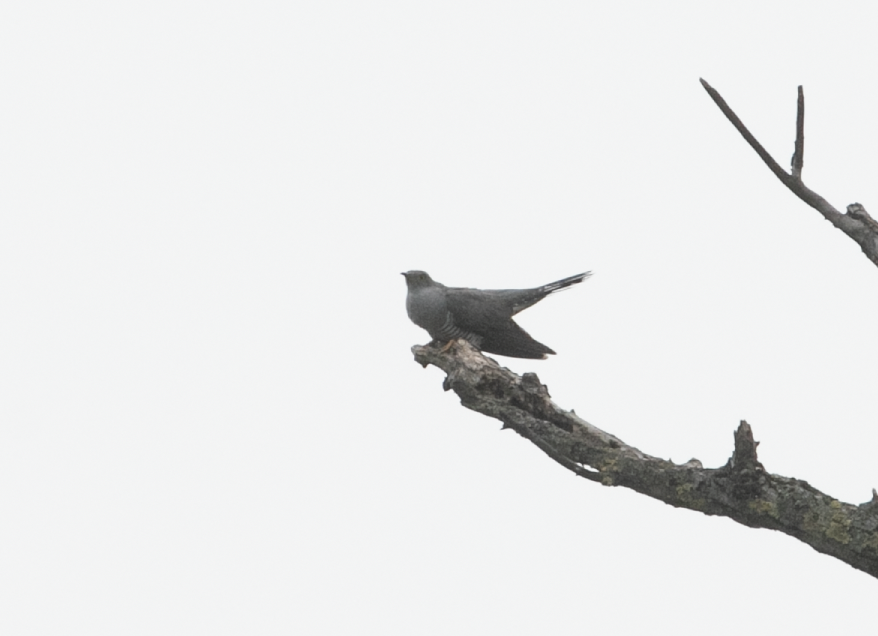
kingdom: Animalia
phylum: Chordata
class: Aves
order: Cuculiformes
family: Cuculidae
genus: Cuculus
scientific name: Cuculus canorus
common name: Common cuckoo
